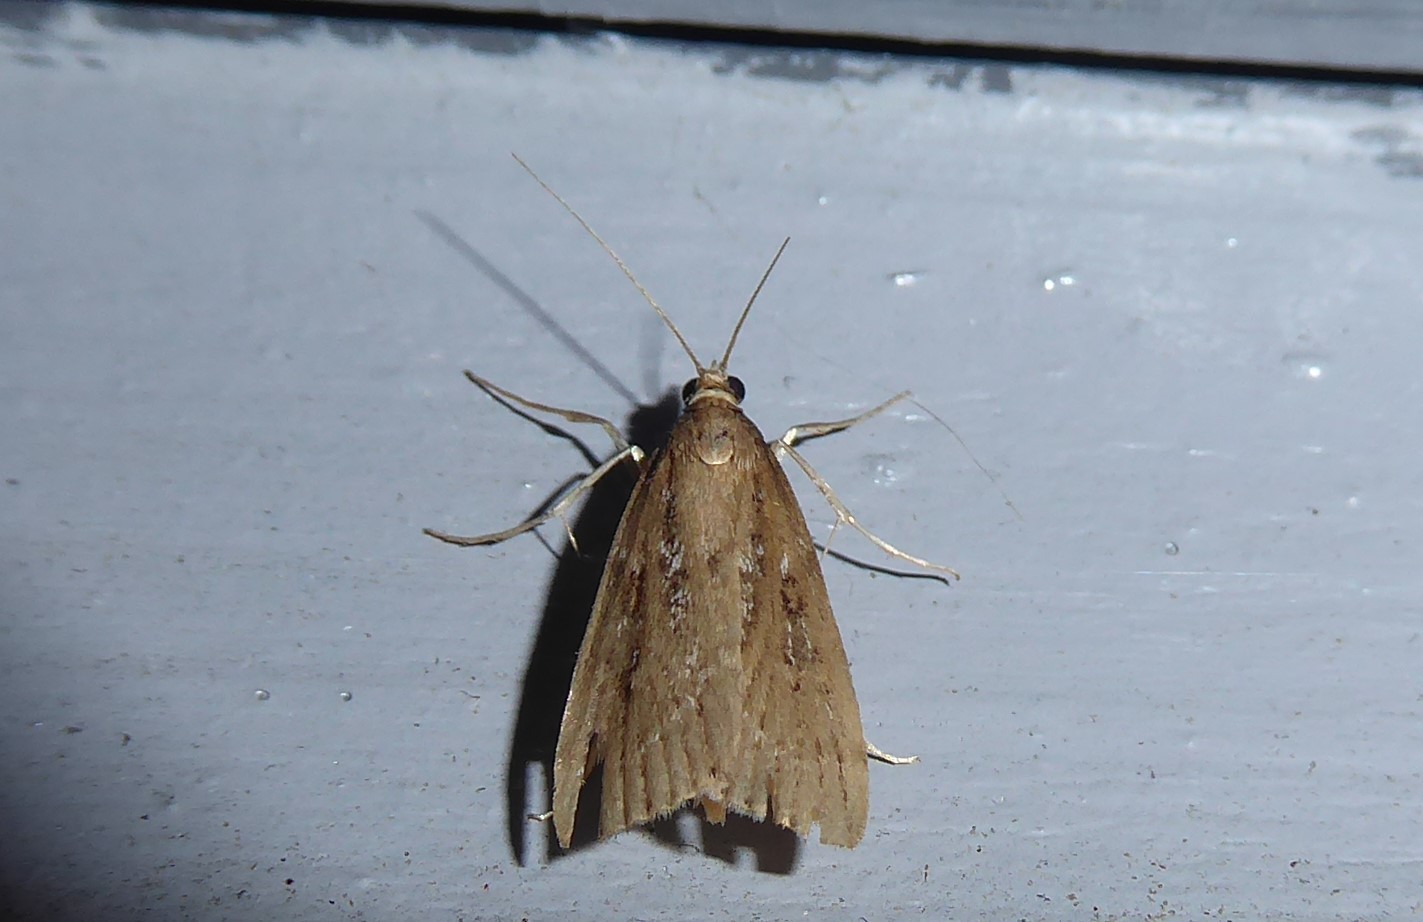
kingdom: Animalia
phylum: Arthropoda
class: Insecta
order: Lepidoptera
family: Crambidae
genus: Eudonia
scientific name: Eudonia octophora
